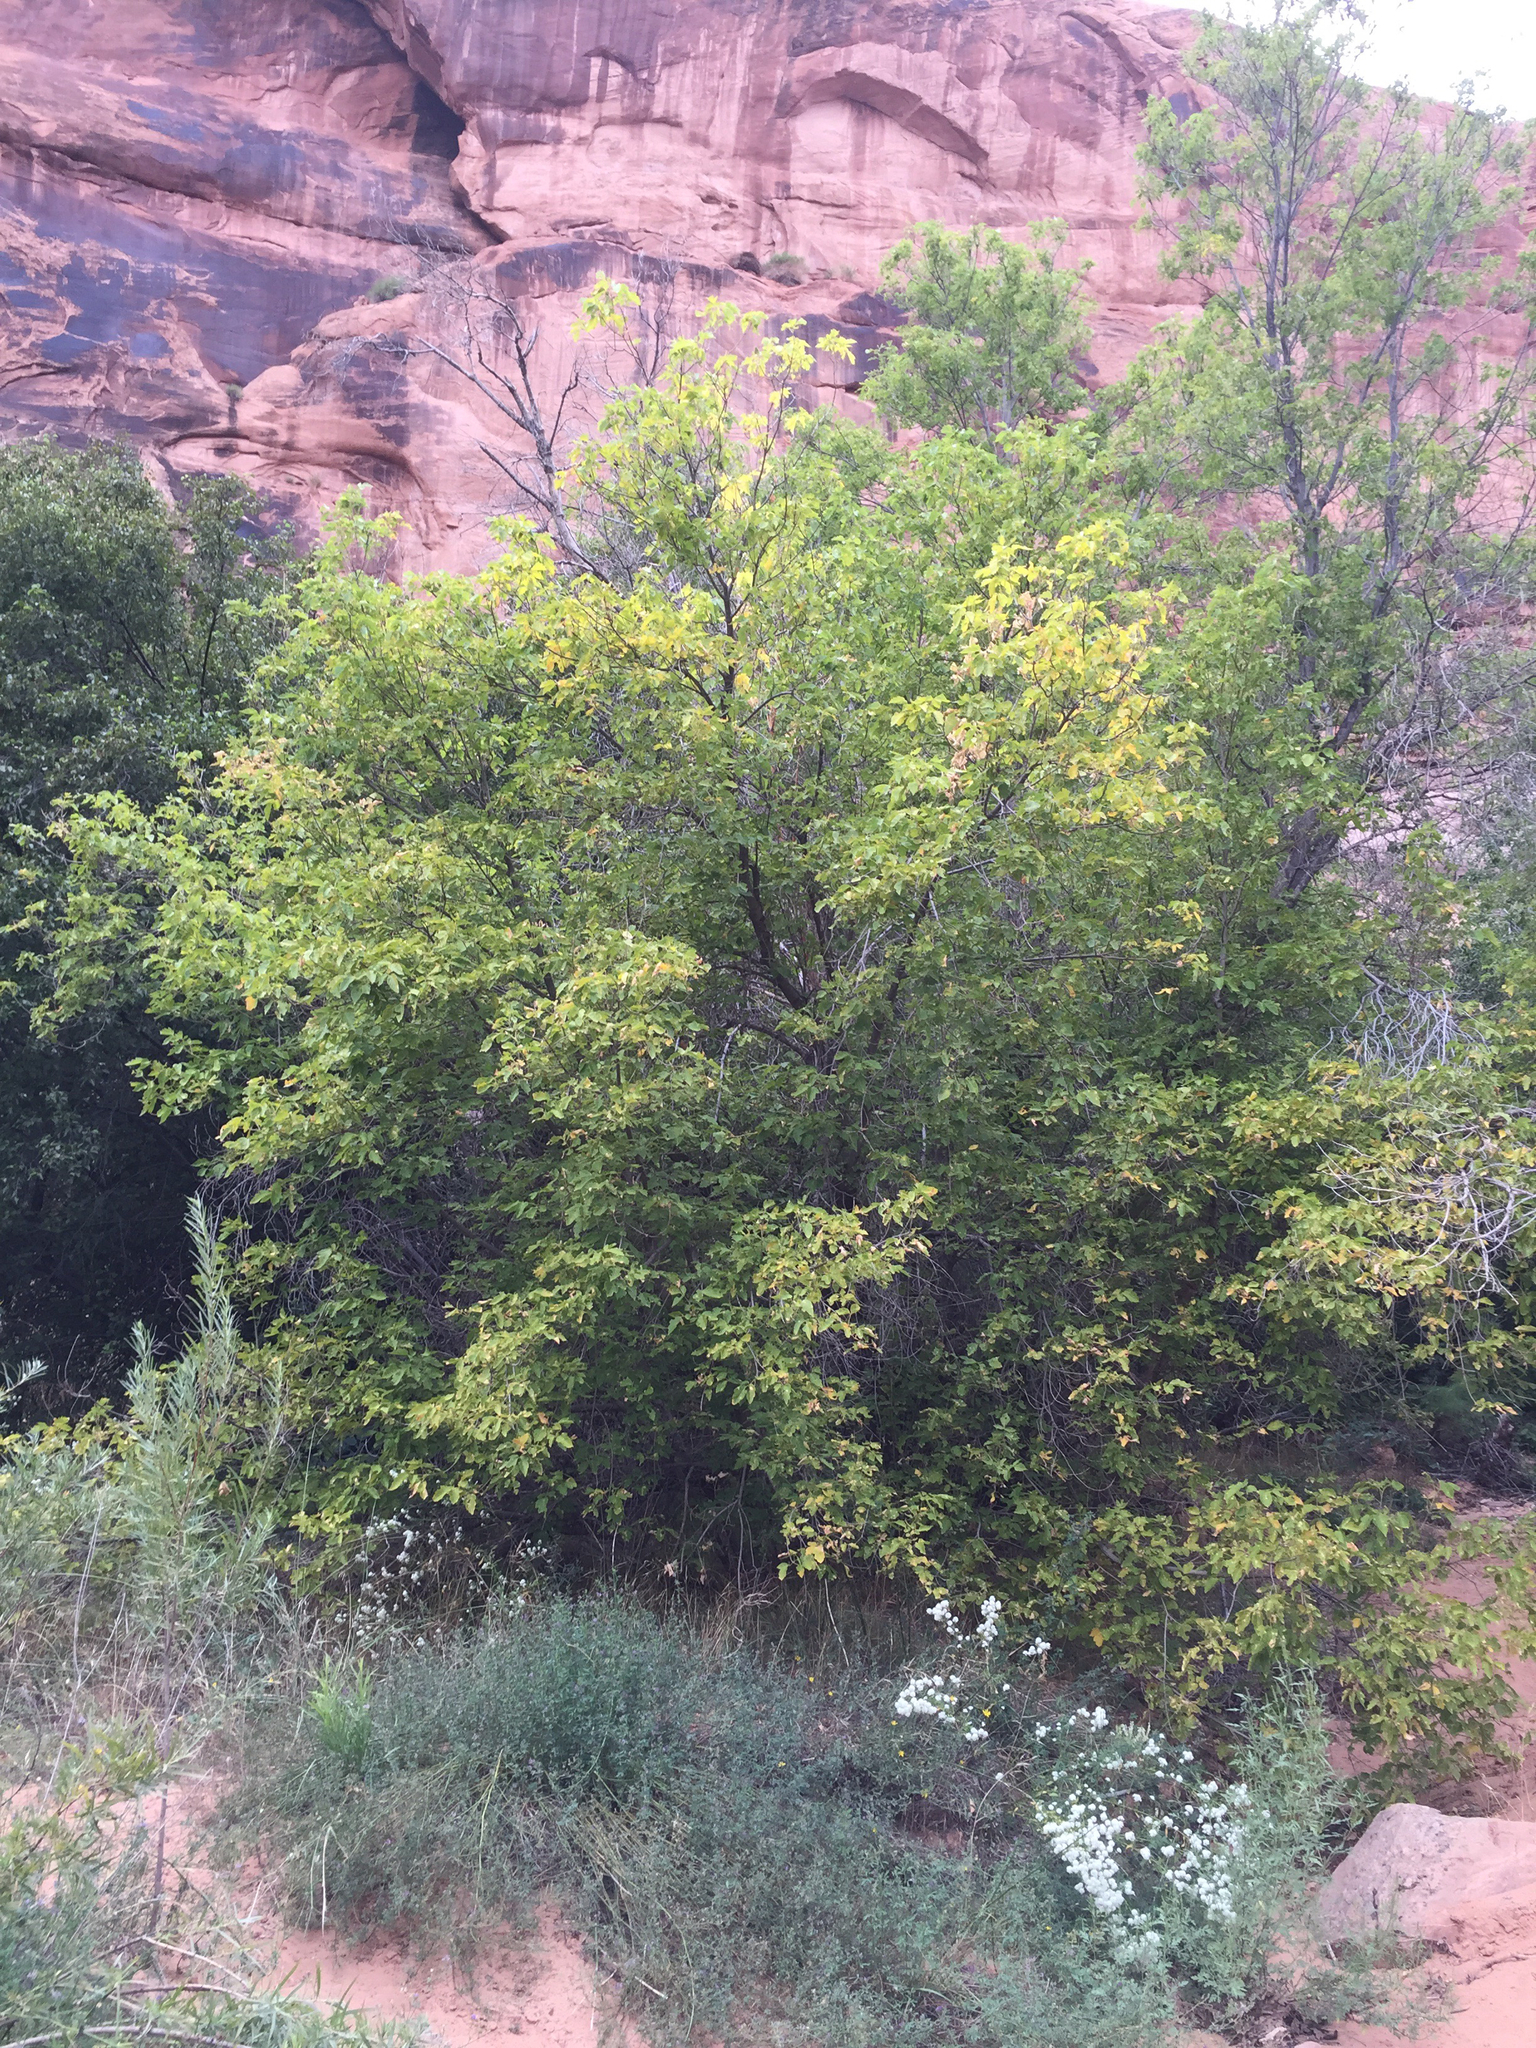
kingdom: Plantae
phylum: Tracheophyta
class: Magnoliopsida
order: Sapindales
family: Sapindaceae
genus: Acer
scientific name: Acer negundo
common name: Ashleaf maple
